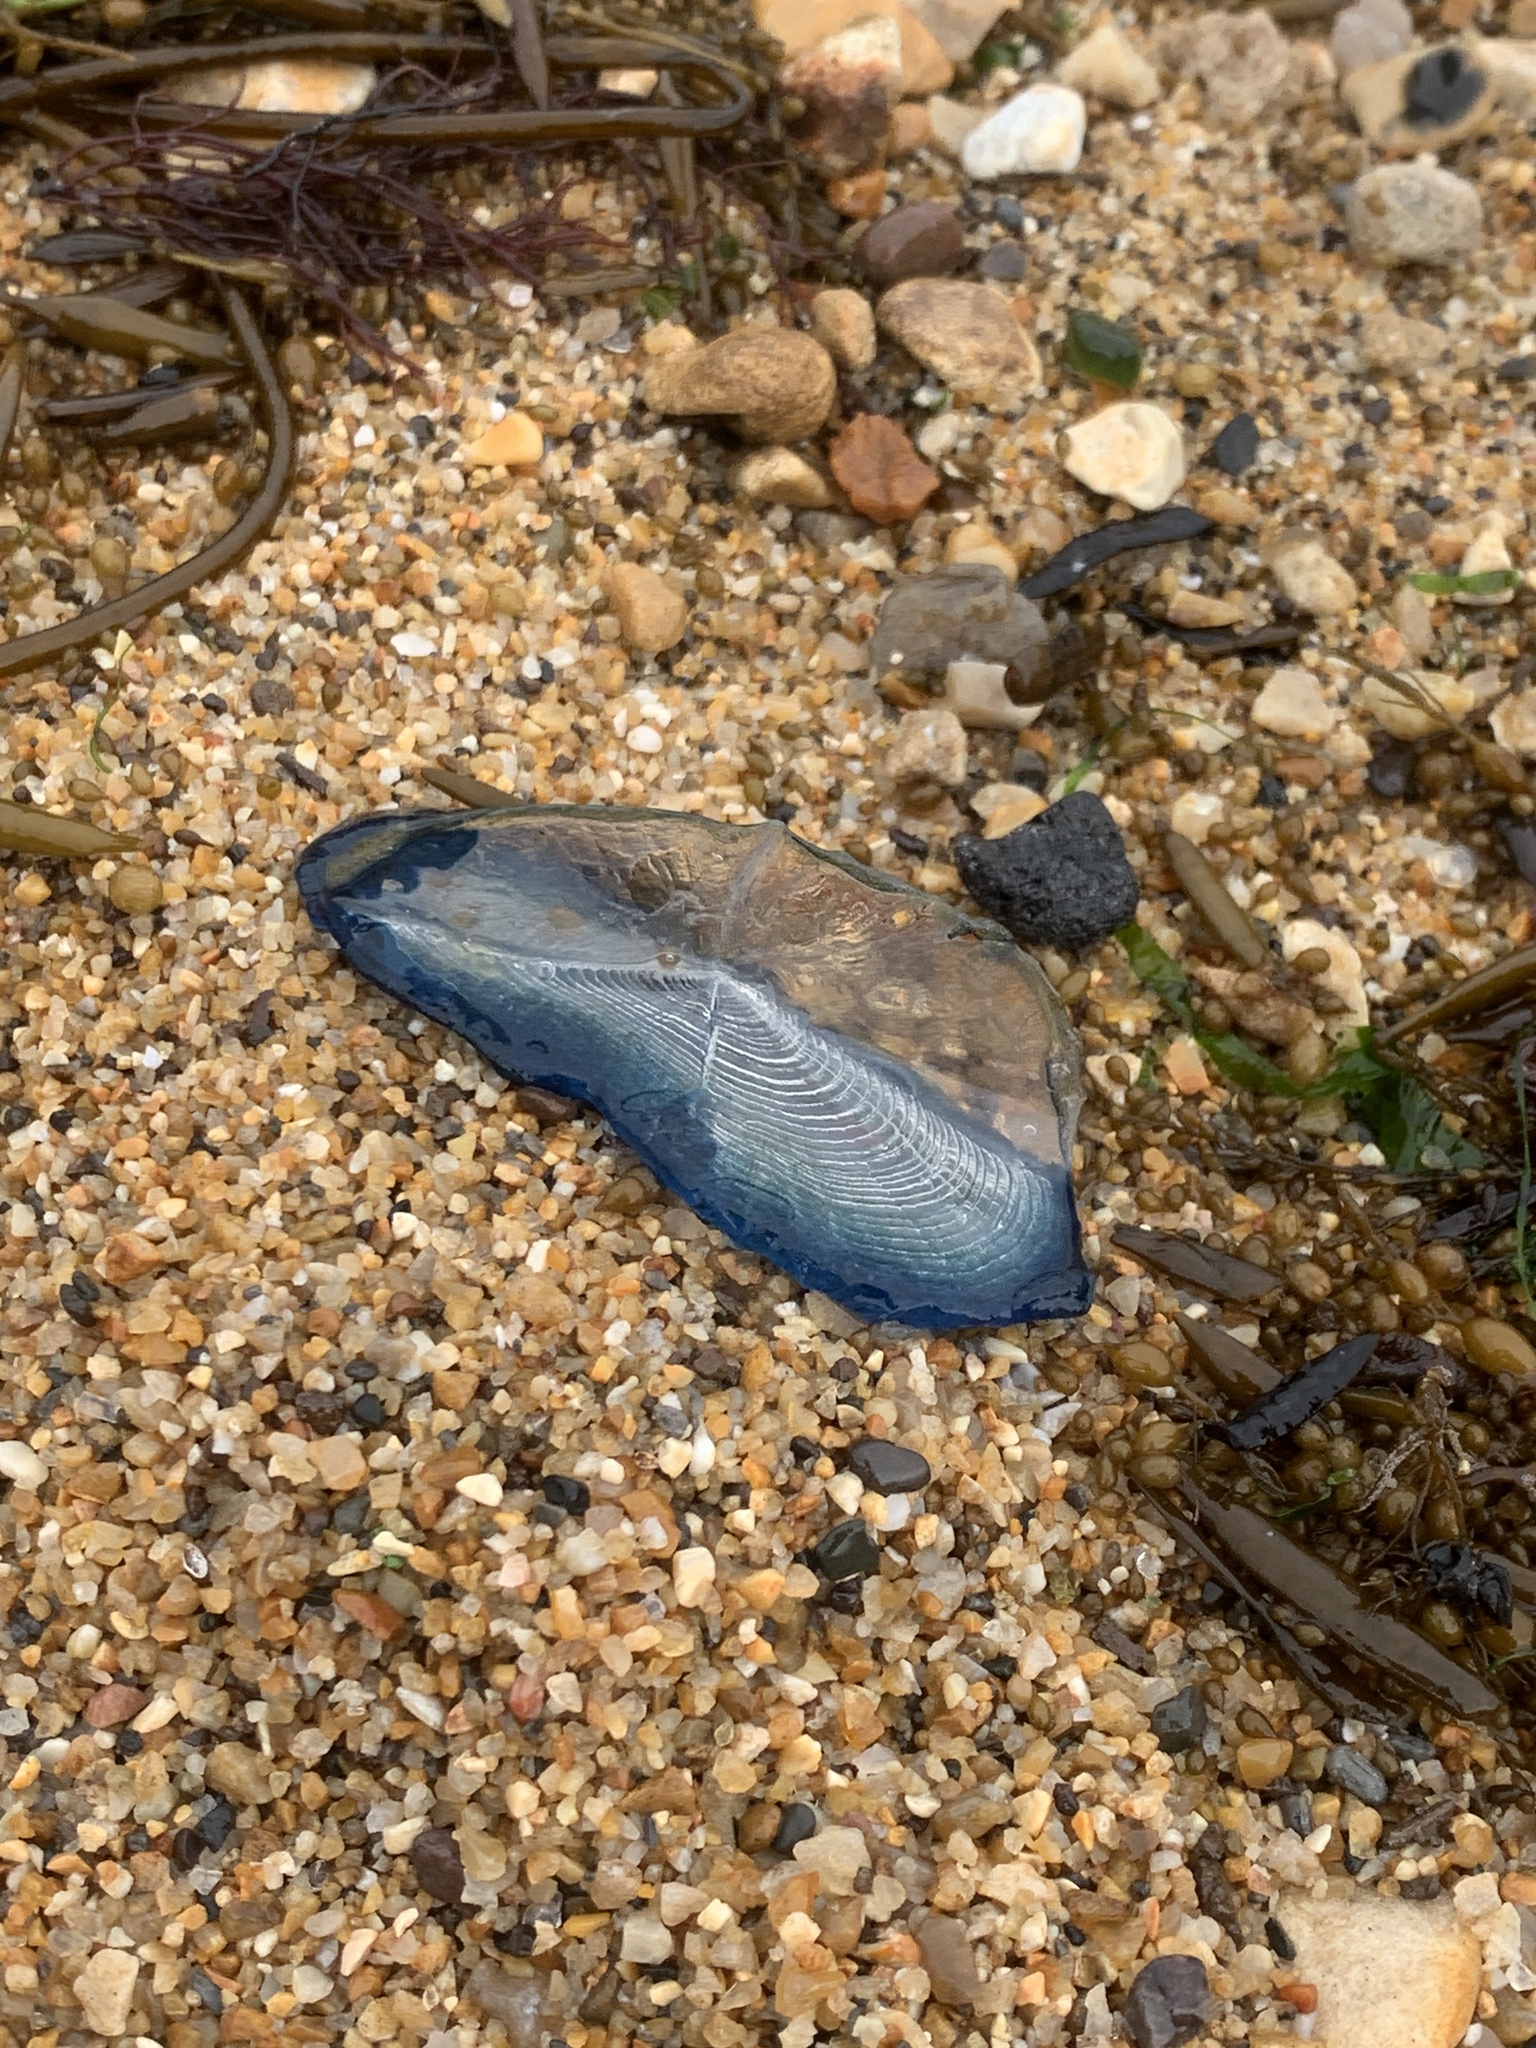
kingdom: Animalia
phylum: Cnidaria
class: Hydrozoa
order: Anthoathecata
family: Porpitidae
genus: Velella
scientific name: Velella velella
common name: By-the-wind-sailor
